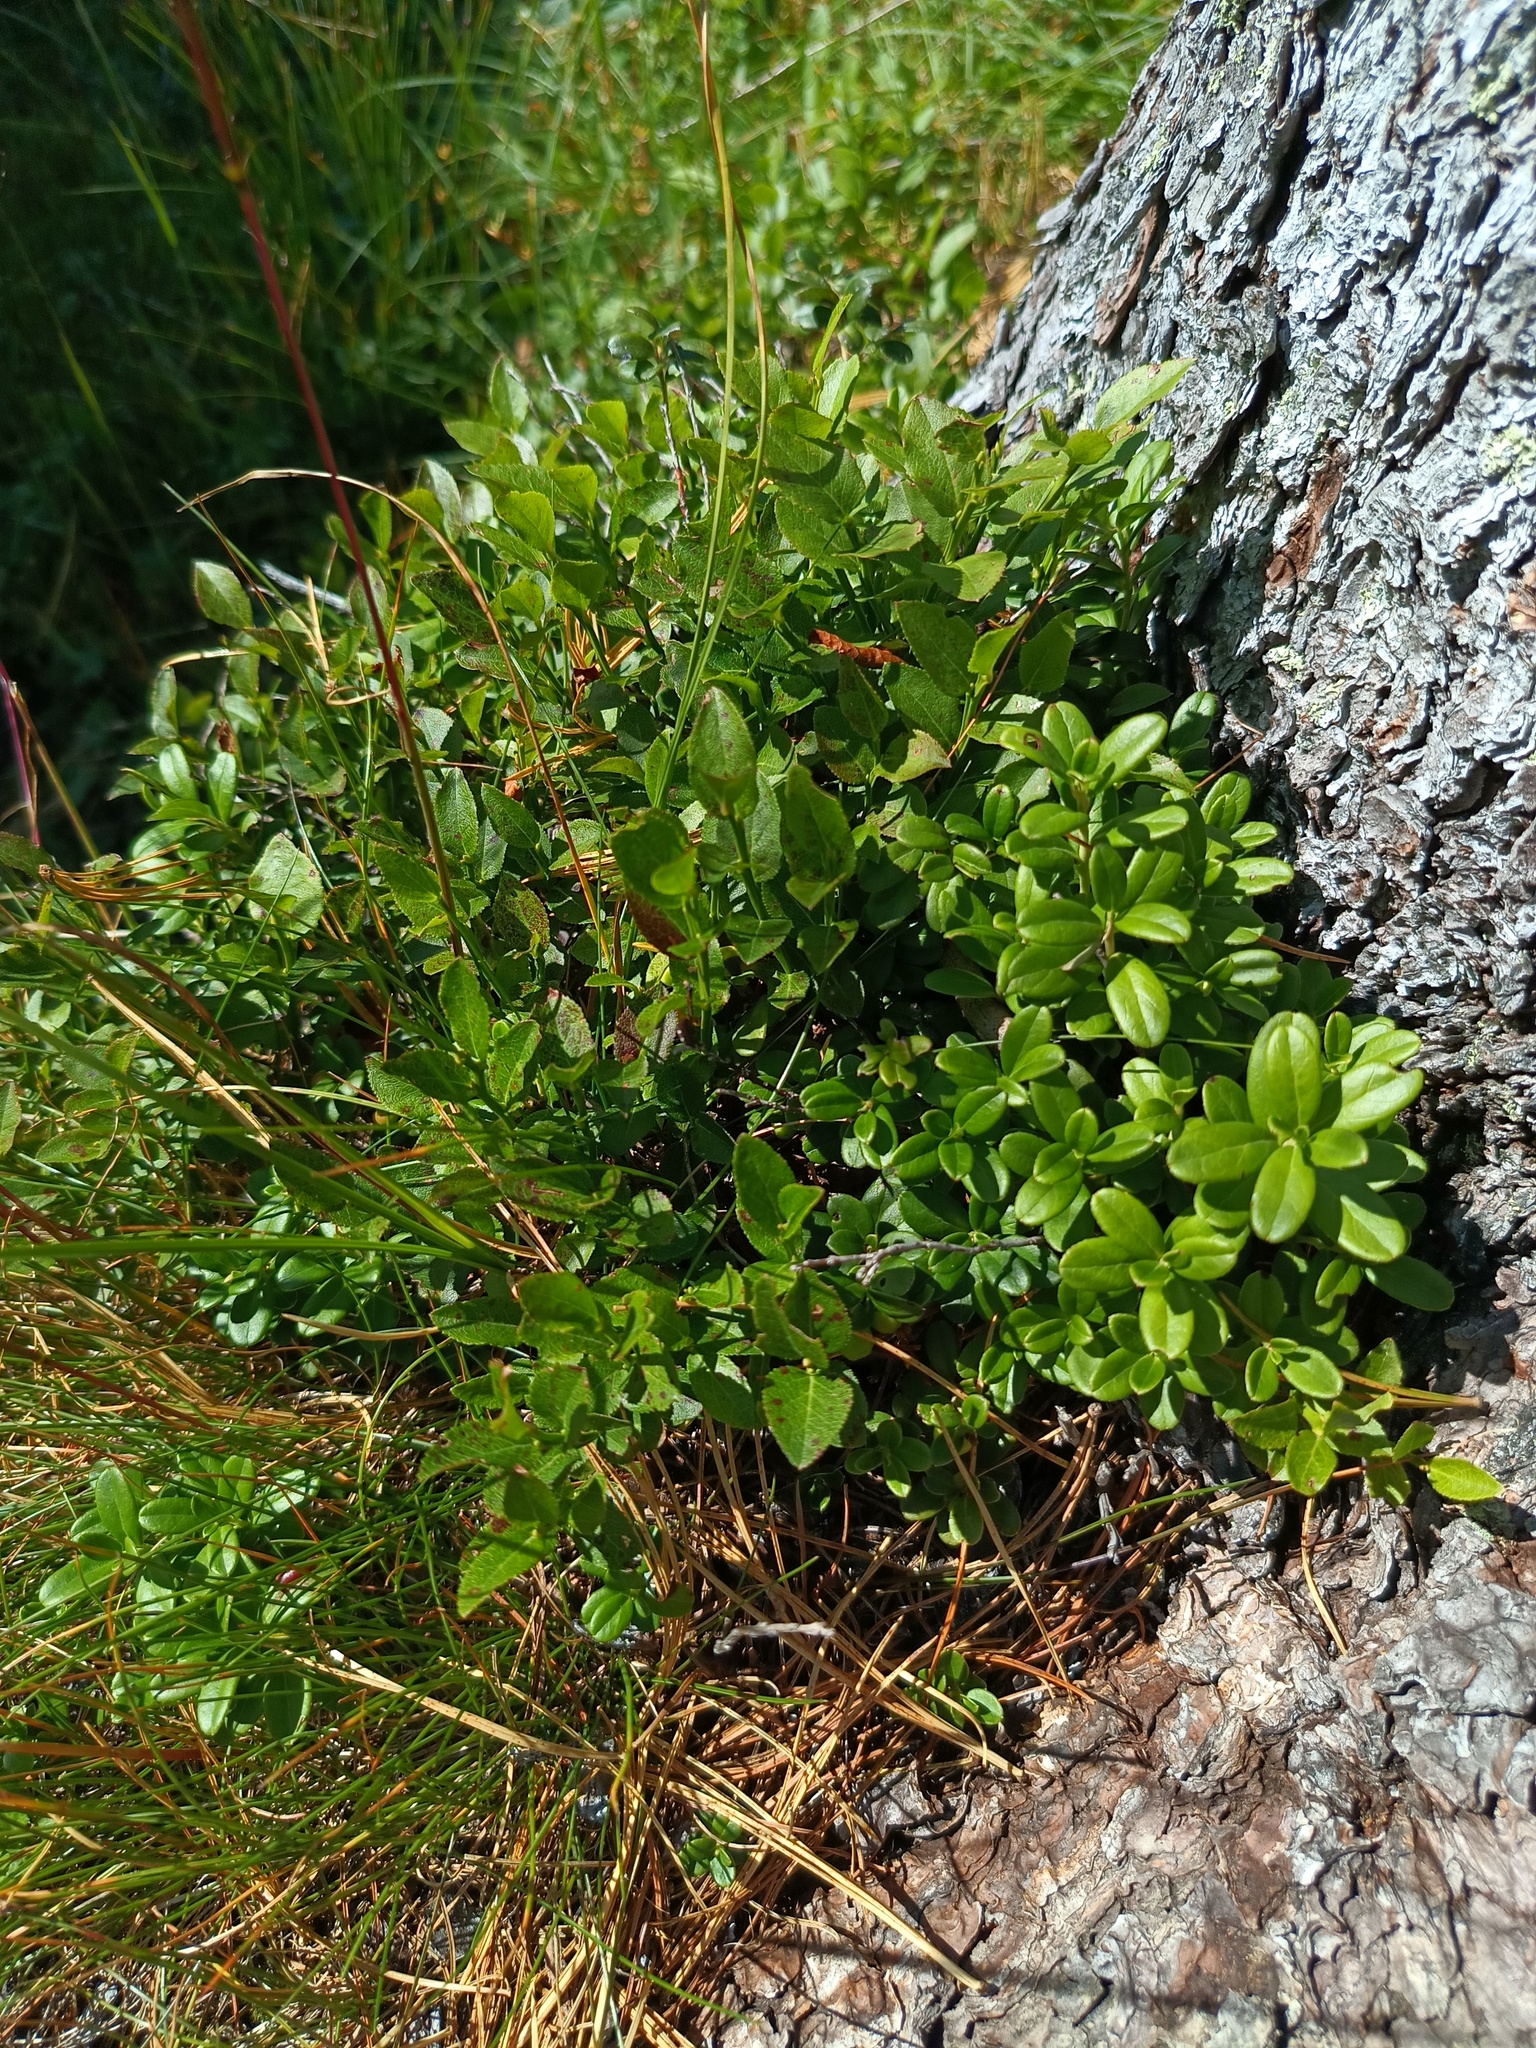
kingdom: Plantae
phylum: Tracheophyta
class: Magnoliopsida
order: Ericales
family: Ericaceae
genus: Vaccinium
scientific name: Vaccinium vitis-idaea
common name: Cowberry
